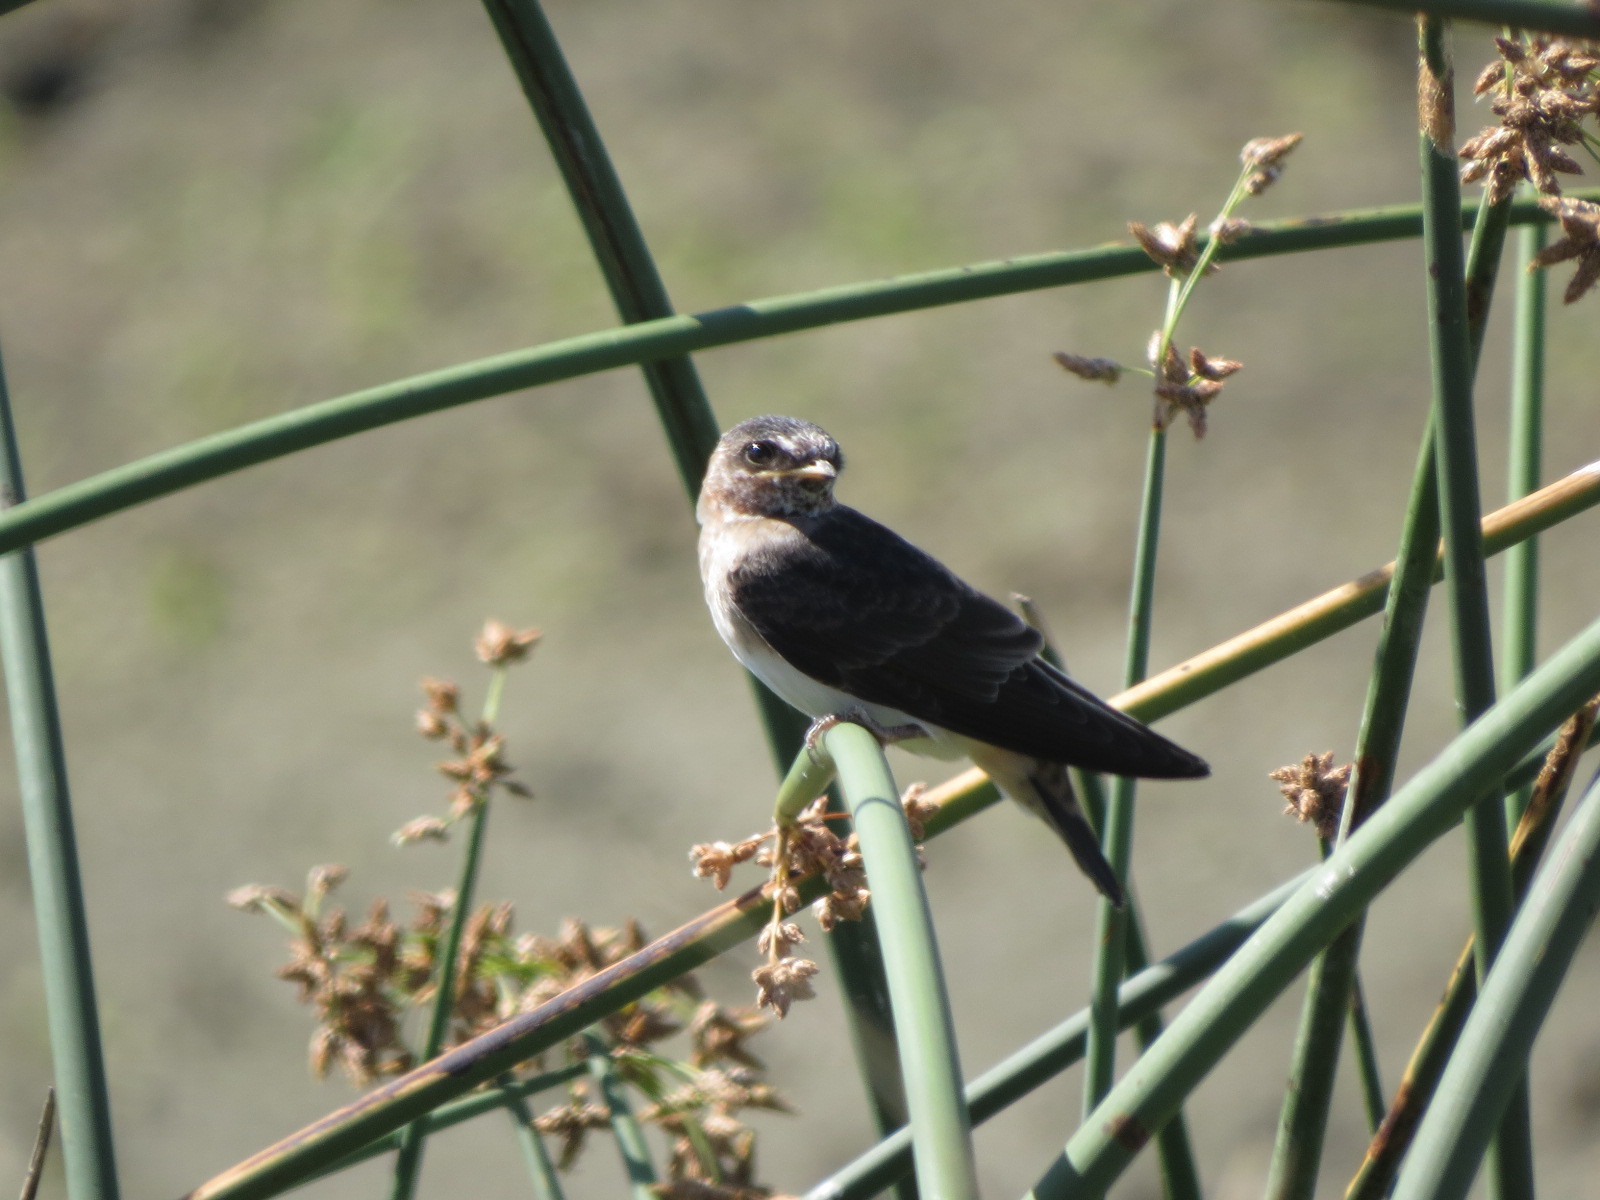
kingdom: Animalia
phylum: Chordata
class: Aves
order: Passeriformes
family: Hirundinidae
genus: Petrochelidon
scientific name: Petrochelidon pyrrhonota
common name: American cliff swallow
